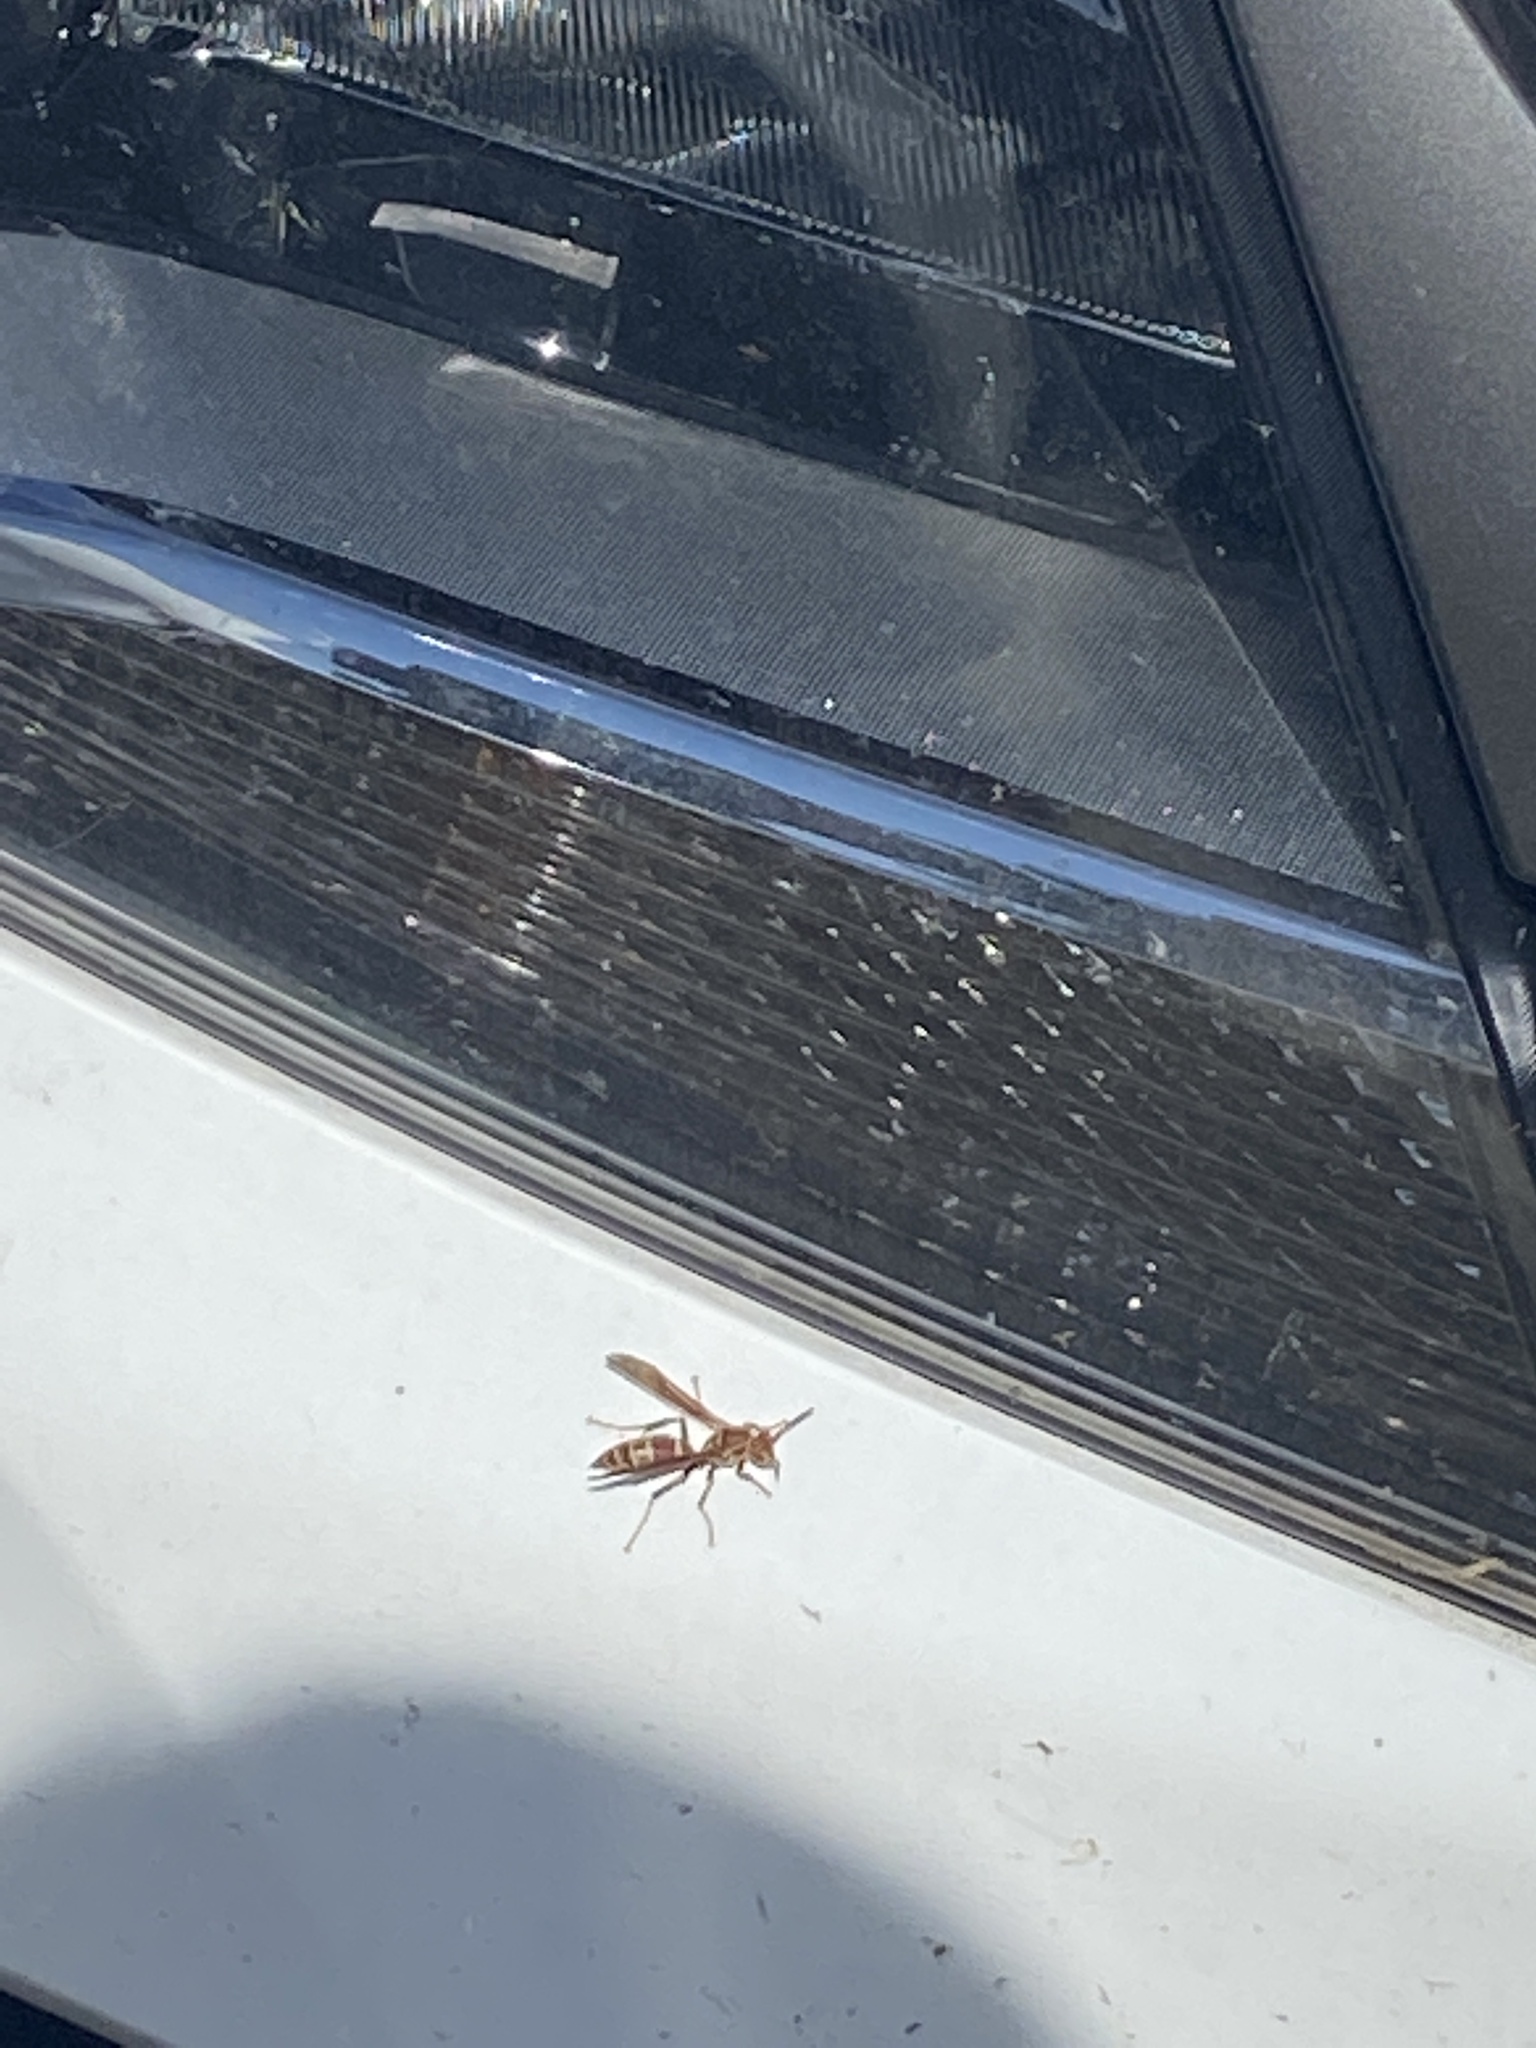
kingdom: Animalia
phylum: Arthropoda
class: Insecta
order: Hymenoptera
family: Vespidae
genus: Fuscopolistes
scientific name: Fuscopolistes
